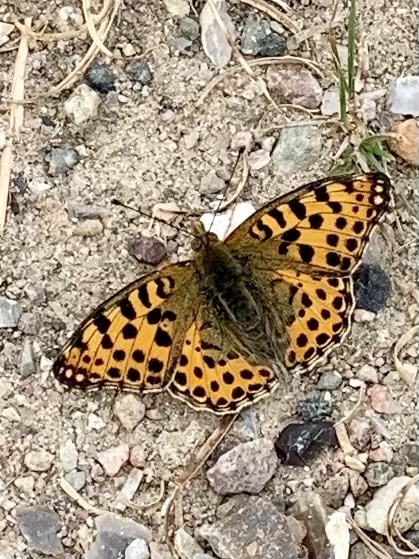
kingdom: Animalia
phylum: Arthropoda
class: Insecta
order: Lepidoptera
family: Nymphalidae
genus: Issoria
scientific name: Issoria lathonia
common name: Queen of spain fritillary
